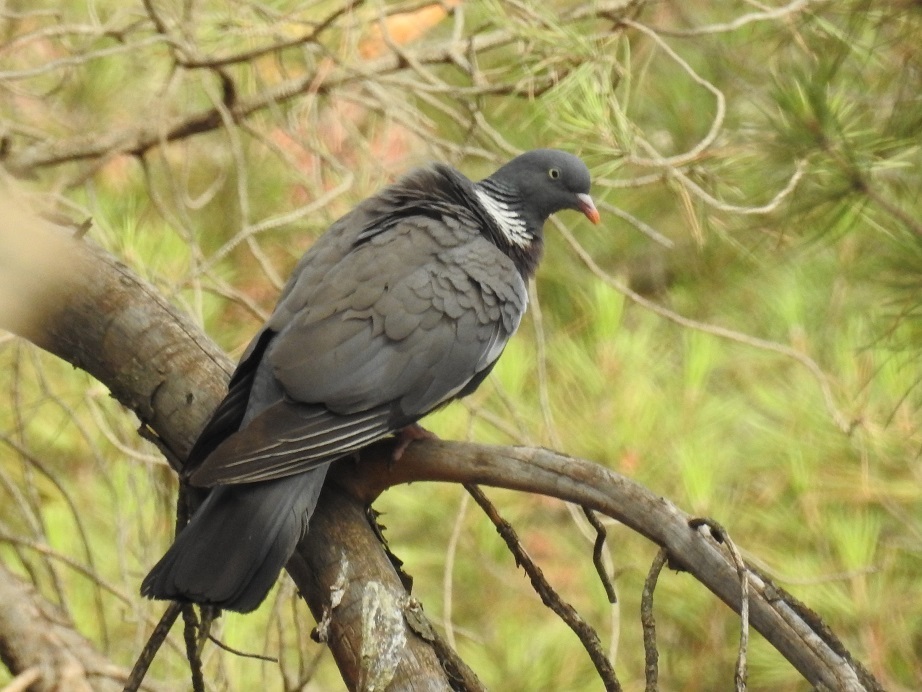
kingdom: Animalia
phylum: Chordata
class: Aves
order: Columbiformes
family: Columbidae
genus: Columba
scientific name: Columba palumbus
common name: Common wood pigeon
